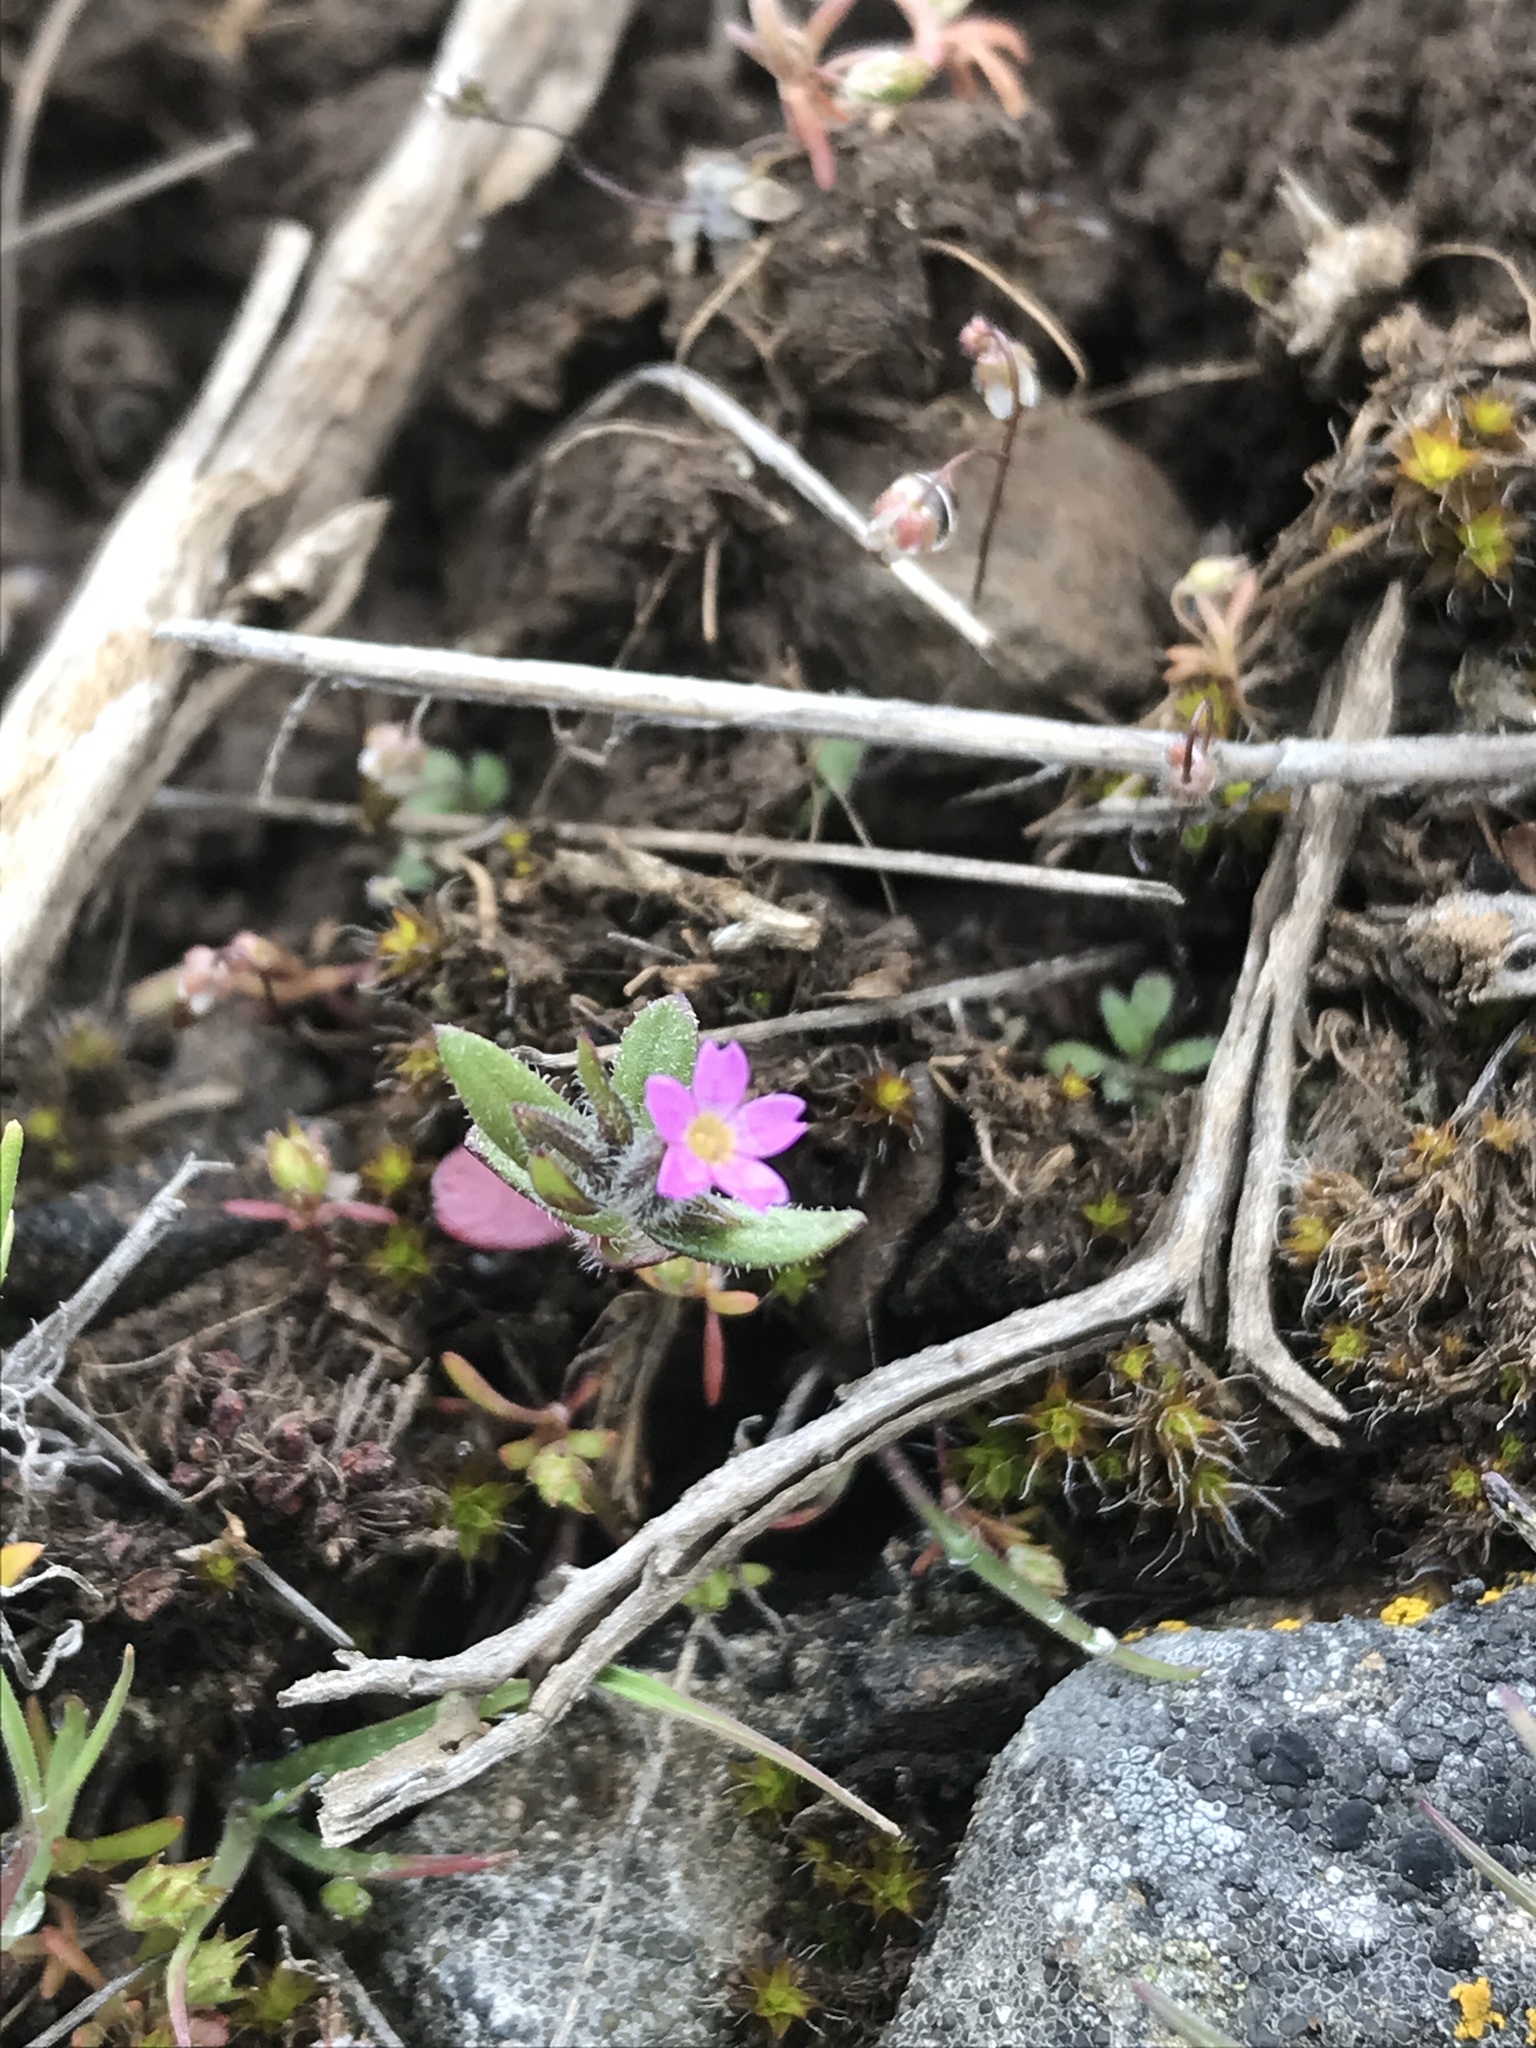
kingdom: Plantae
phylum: Tracheophyta
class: Magnoliopsida
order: Ericales
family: Polemoniaceae
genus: Phlox
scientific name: Phlox gracilis
